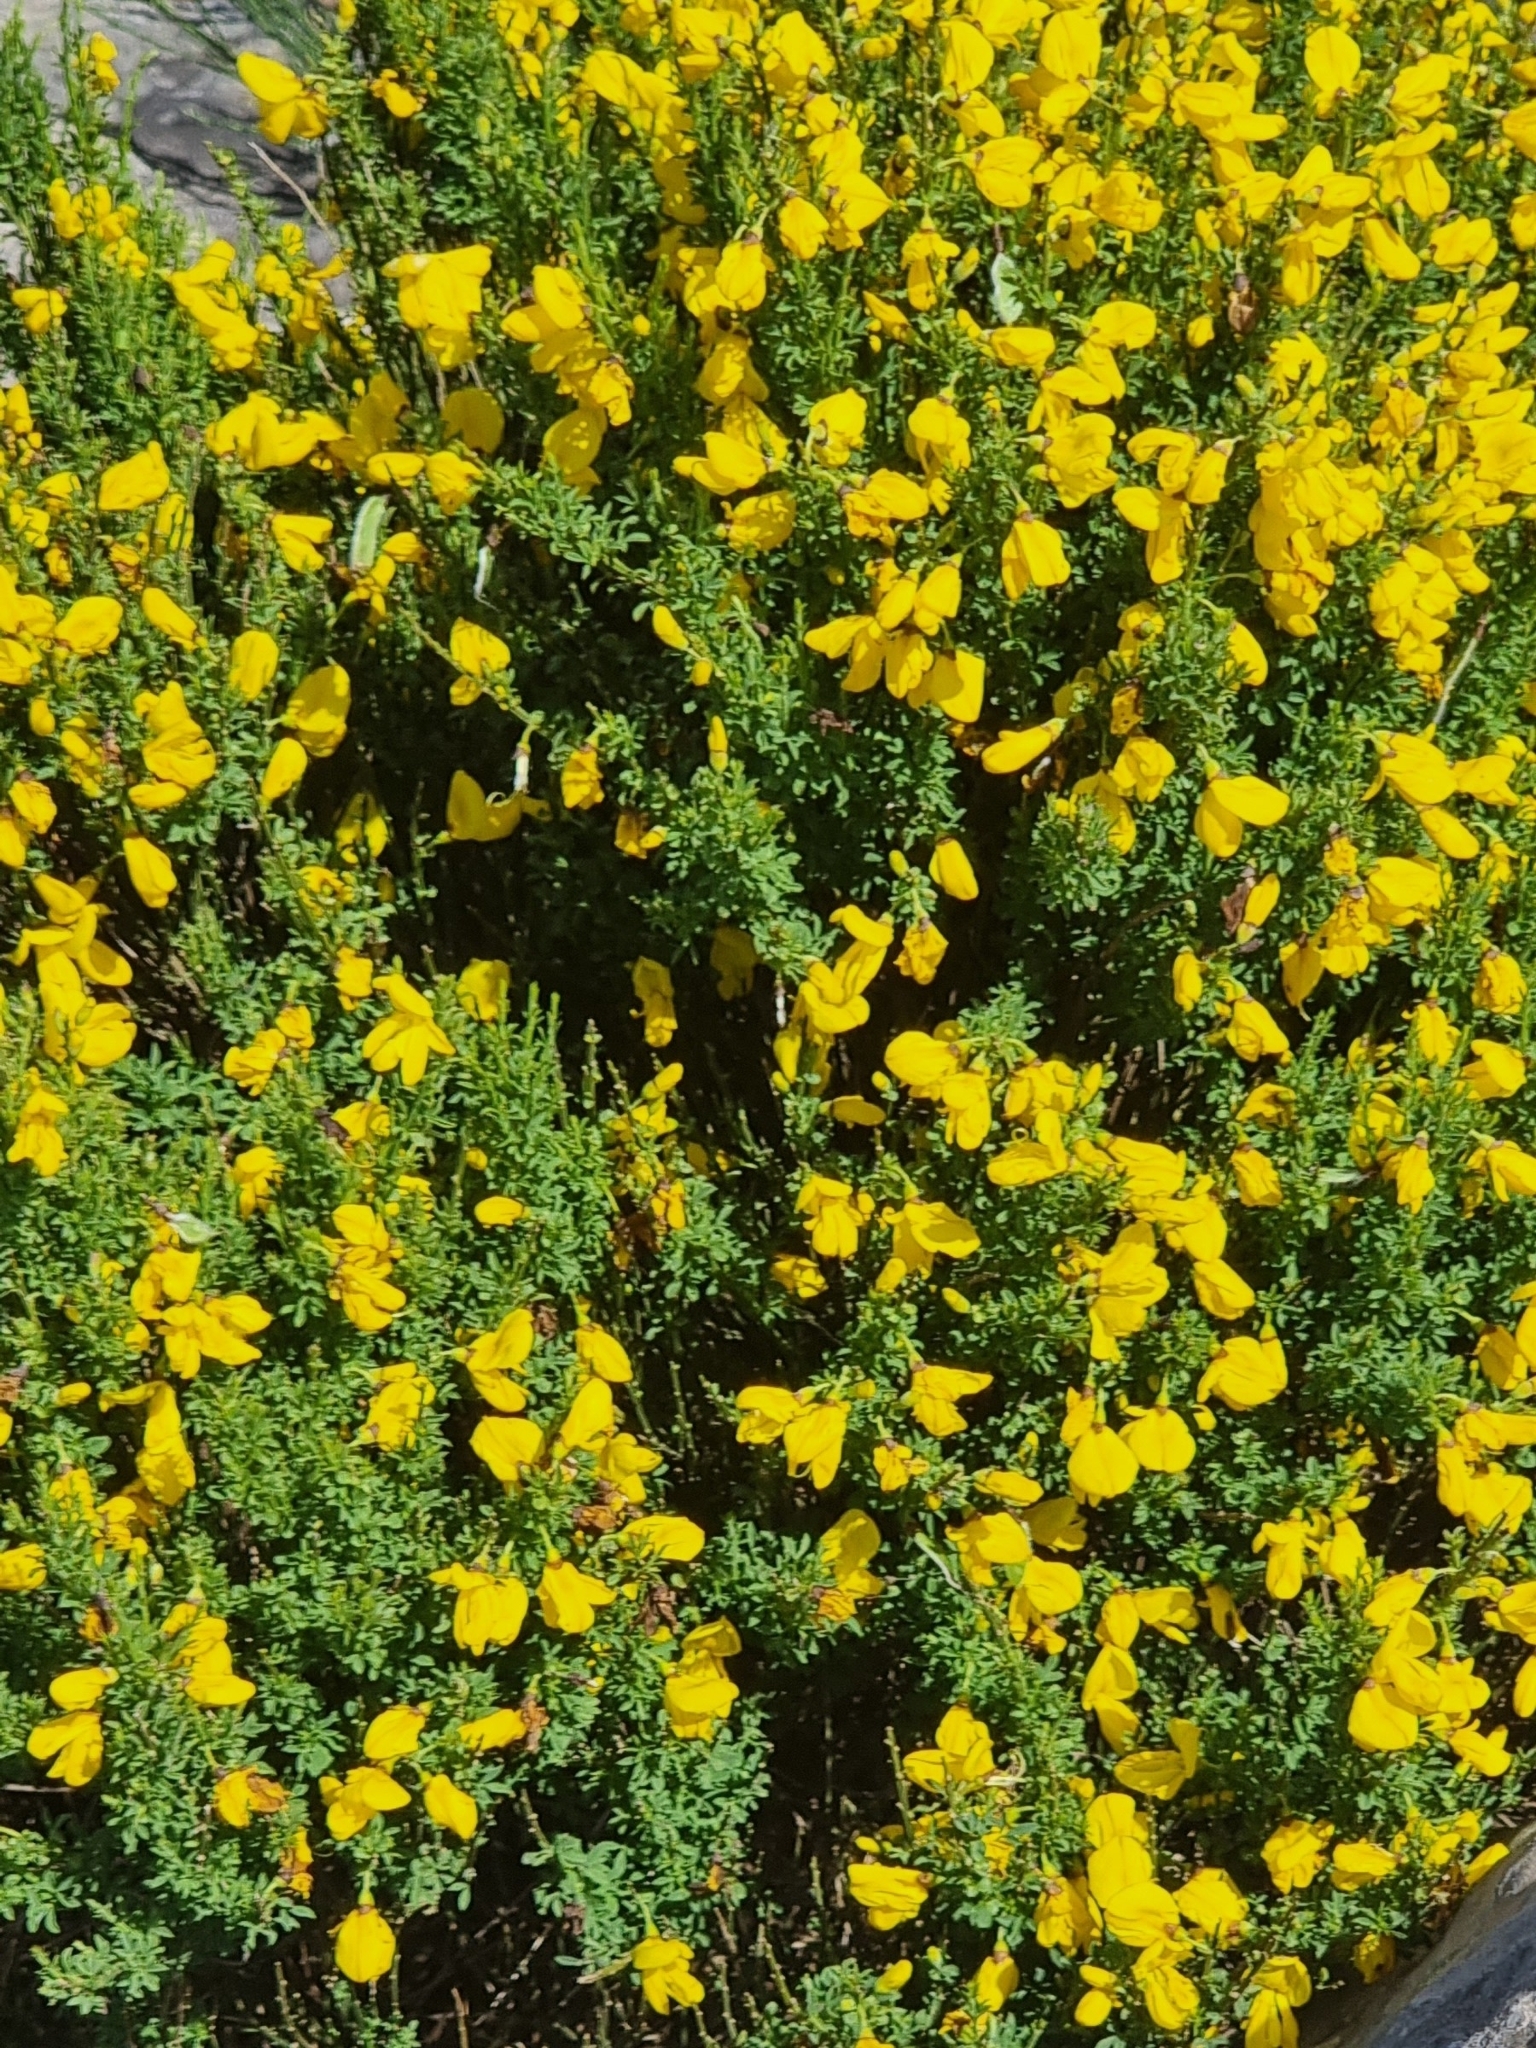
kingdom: Plantae
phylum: Tracheophyta
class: Magnoliopsida
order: Fabales
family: Fabaceae
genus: Cytisus
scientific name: Cytisus scoparius
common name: Scotch broom
